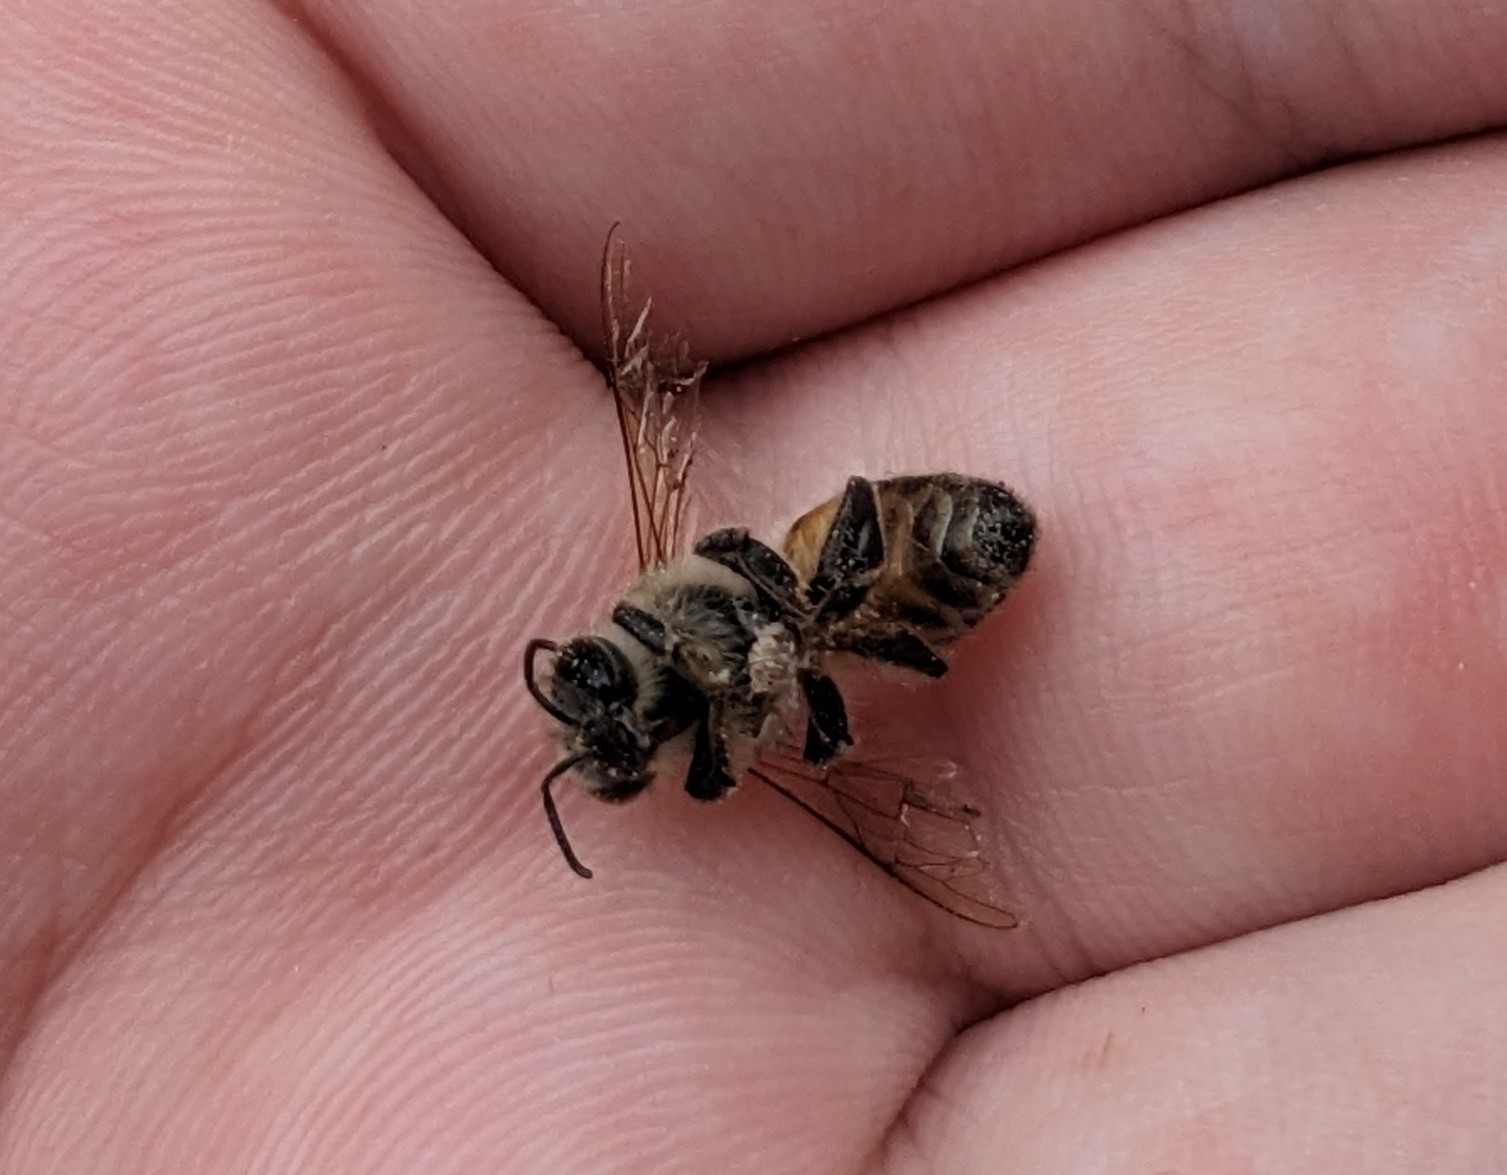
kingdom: Animalia
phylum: Arthropoda
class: Insecta
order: Hymenoptera
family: Apidae
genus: Apis
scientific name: Apis mellifera
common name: Honey bee
